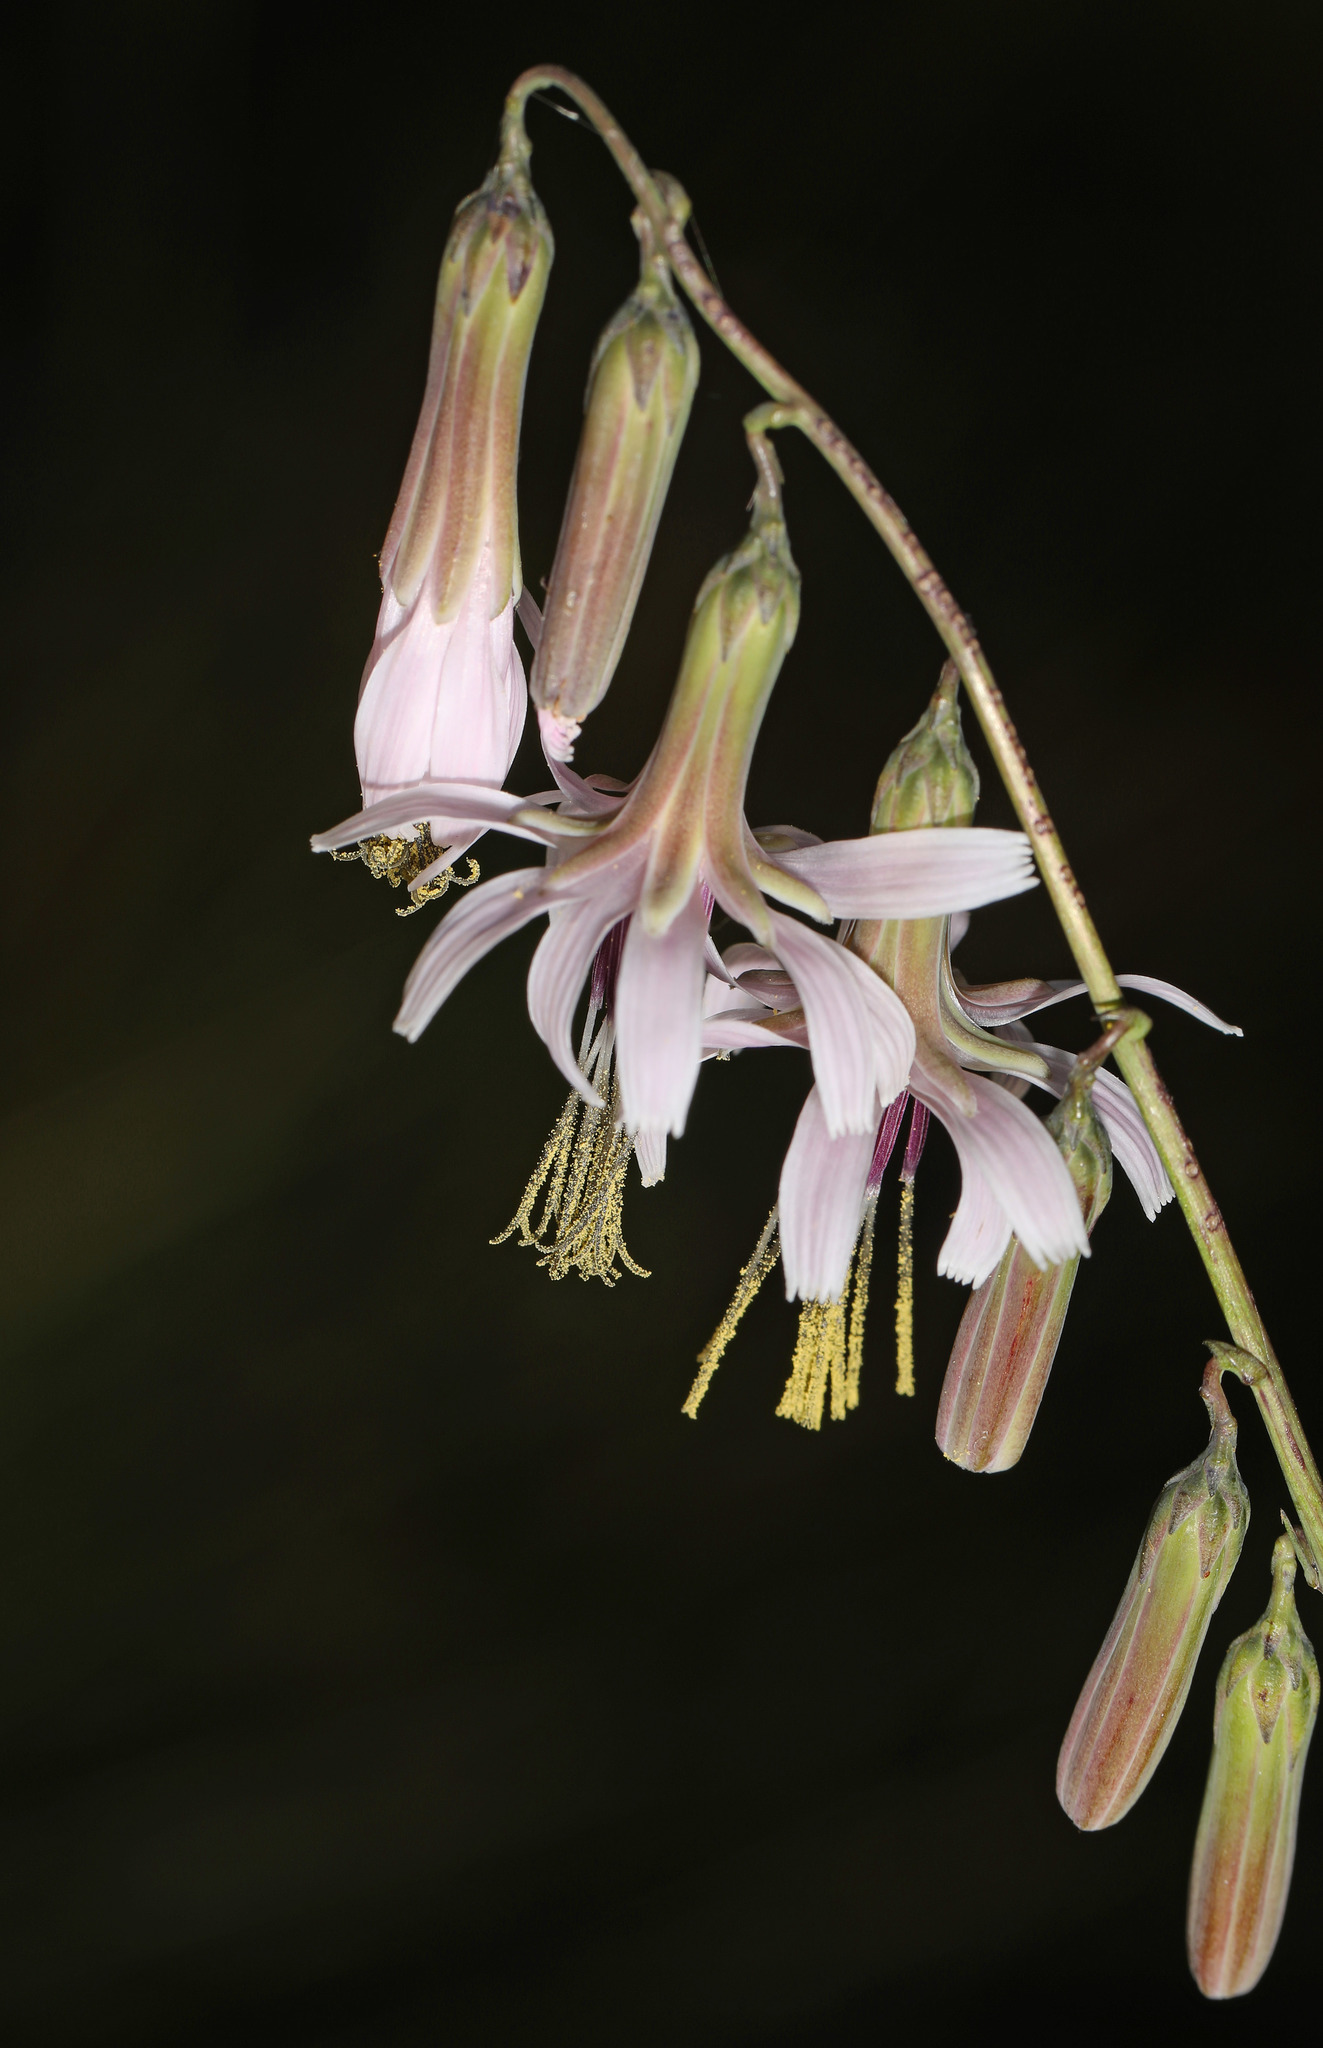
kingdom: Plantae
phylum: Tracheophyta
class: Magnoliopsida
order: Asterales
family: Asteraceae
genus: Nabalus
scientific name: Nabalus autumnalis
